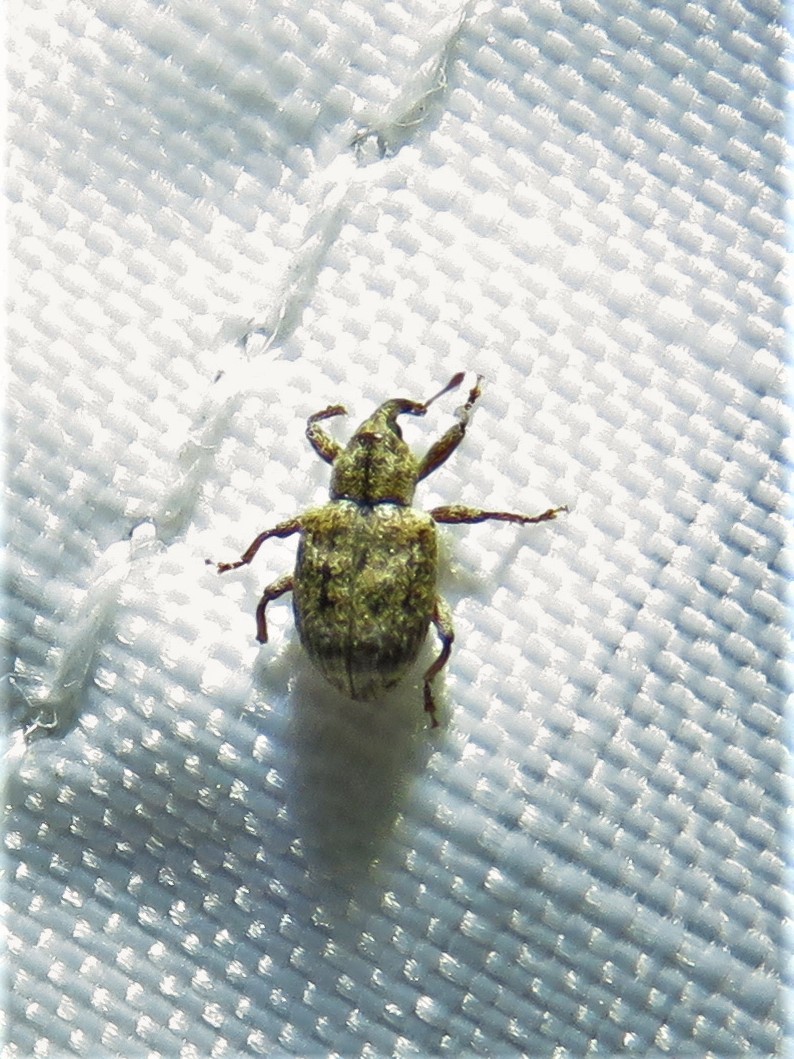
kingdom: Animalia
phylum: Arthropoda
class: Insecta
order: Coleoptera
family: Curculionidae
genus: Conotrachelus
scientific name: Conotrachelus recessus
